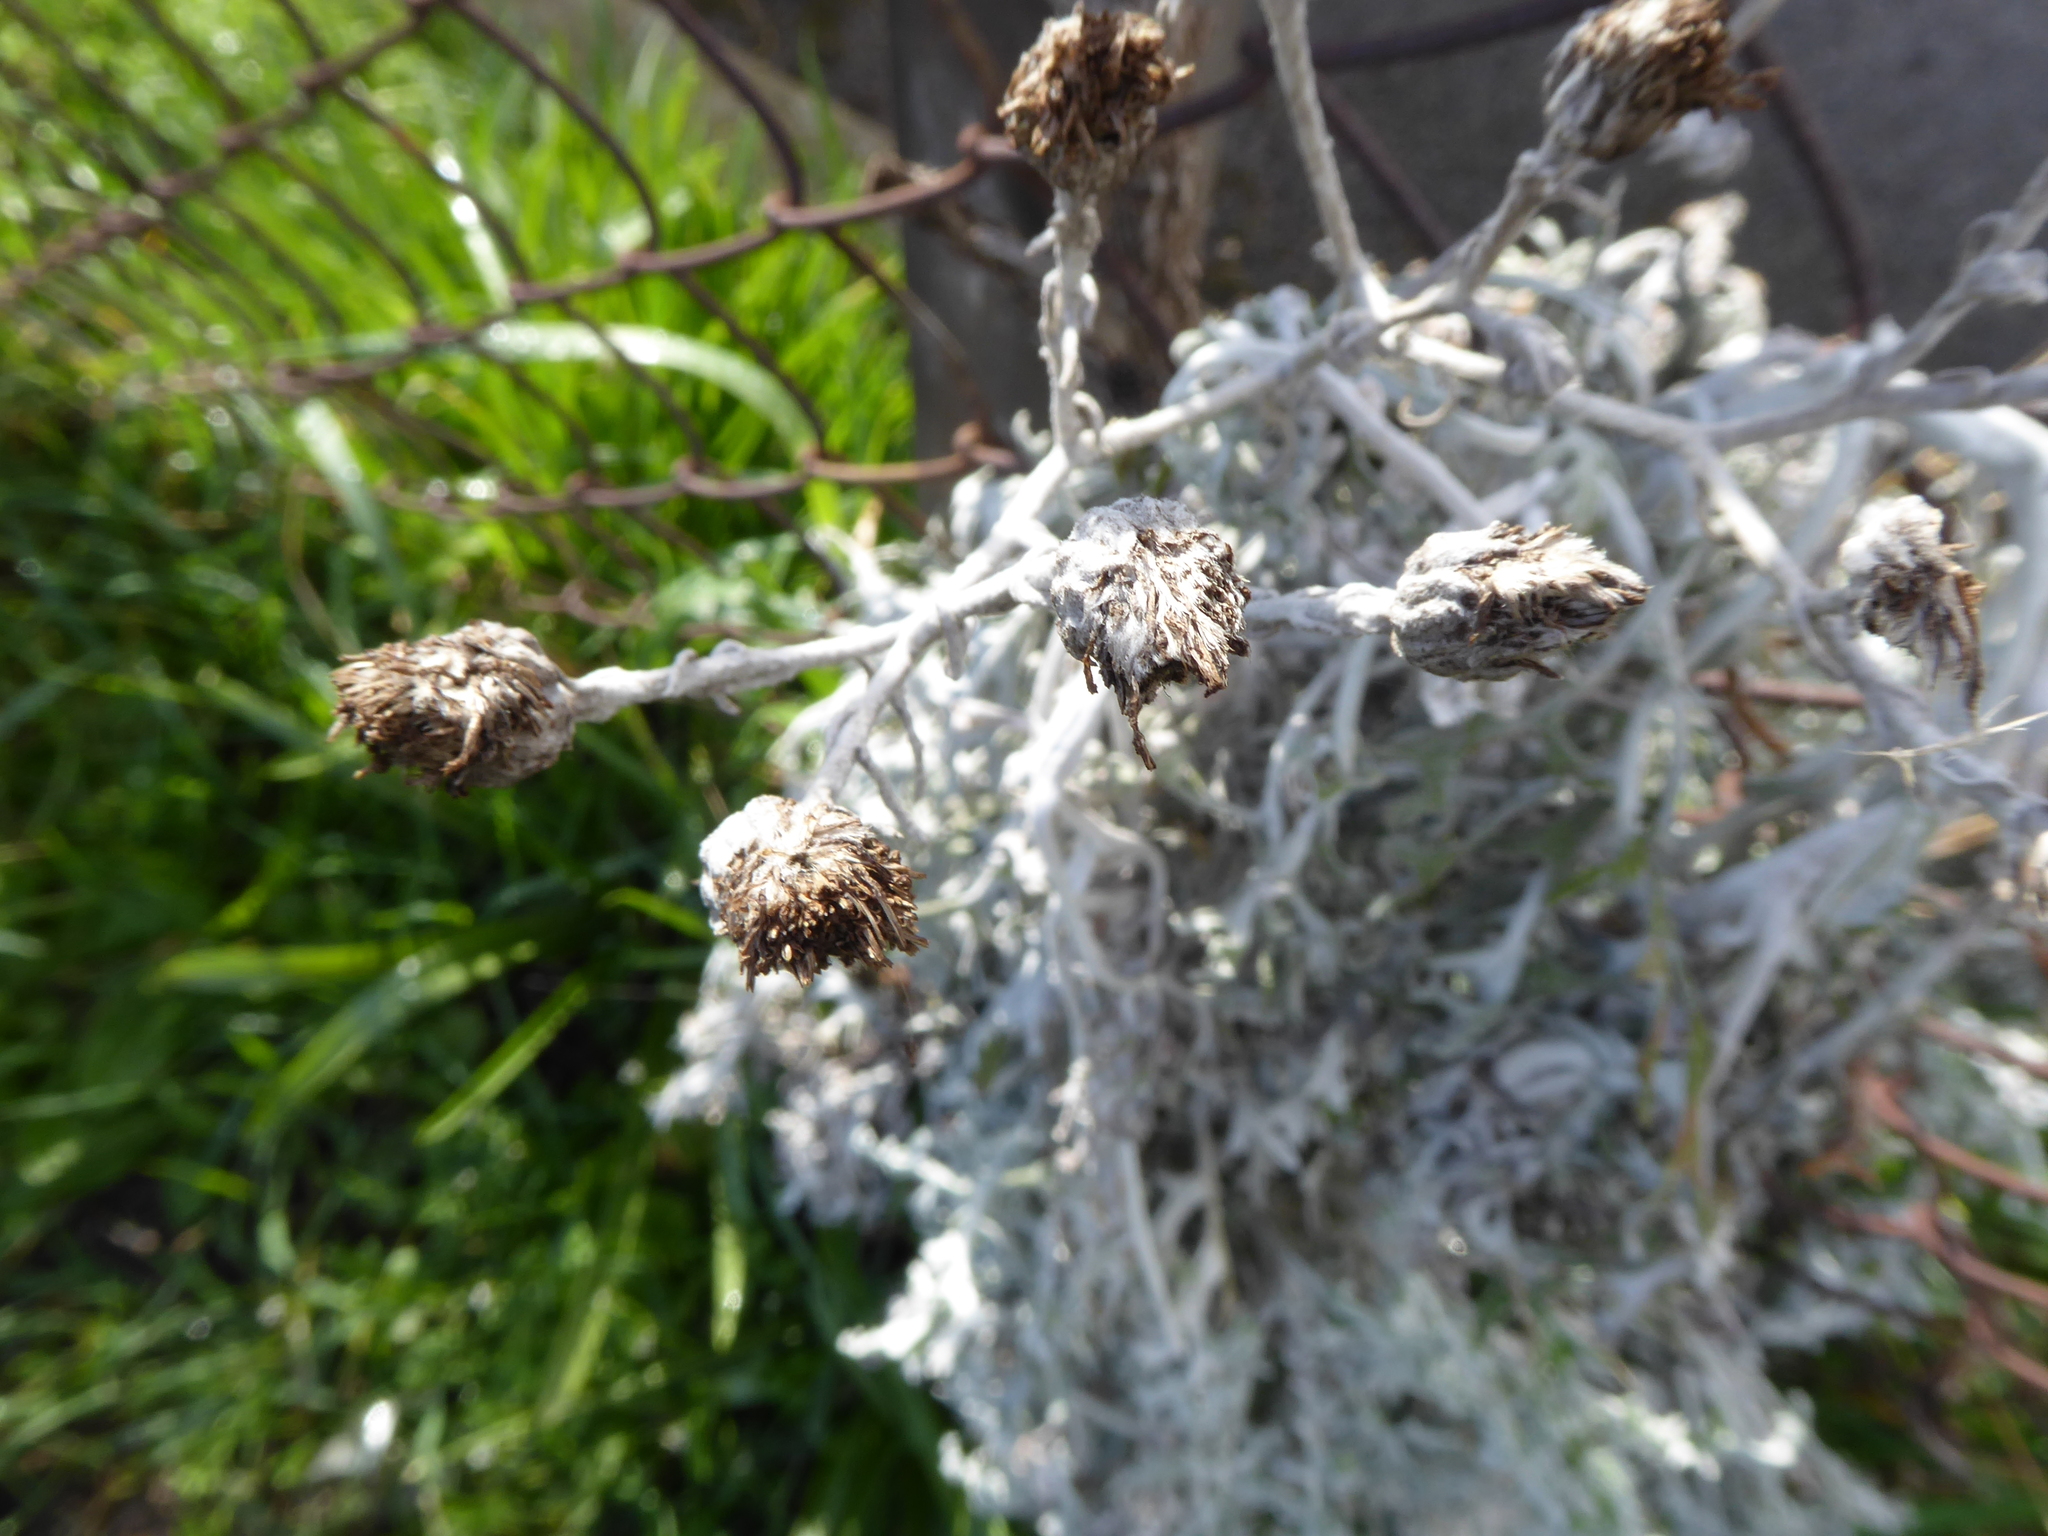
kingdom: Plantae
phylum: Tracheophyta
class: Magnoliopsida
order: Asterales
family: Asteraceae
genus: Jacobaea
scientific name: Jacobaea maritima
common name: Silver ragwort
